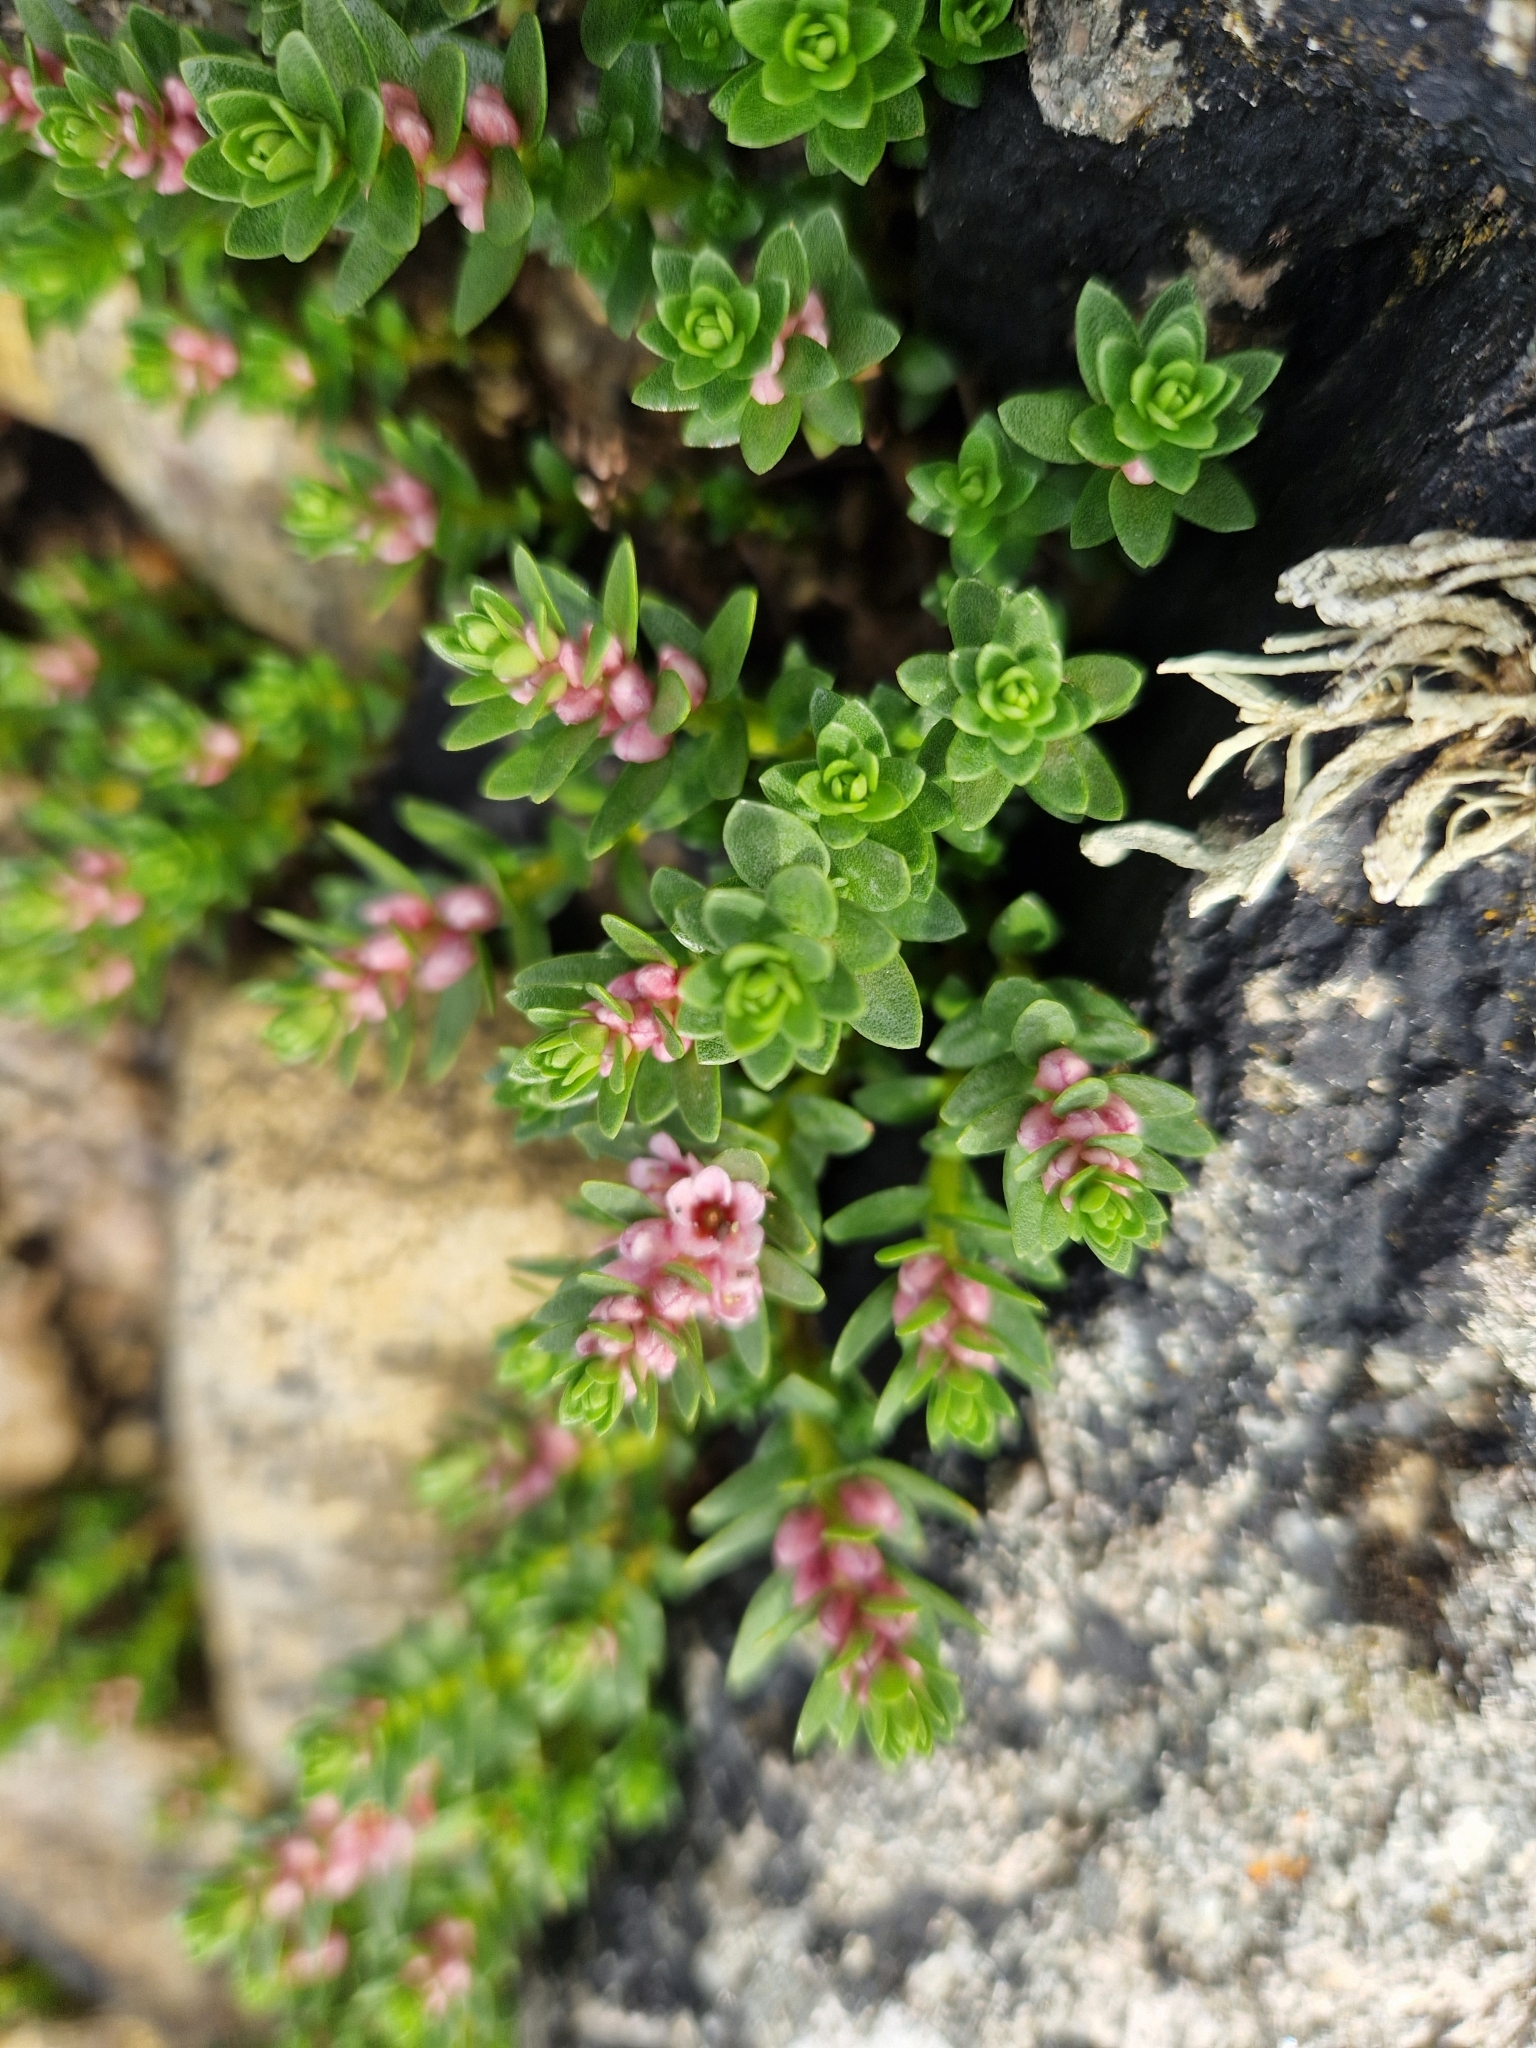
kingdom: Plantae
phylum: Tracheophyta
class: Magnoliopsida
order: Ericales
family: Primulaceae
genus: Lysimachia
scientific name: Lysimachia maritima
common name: Sea milkwort
